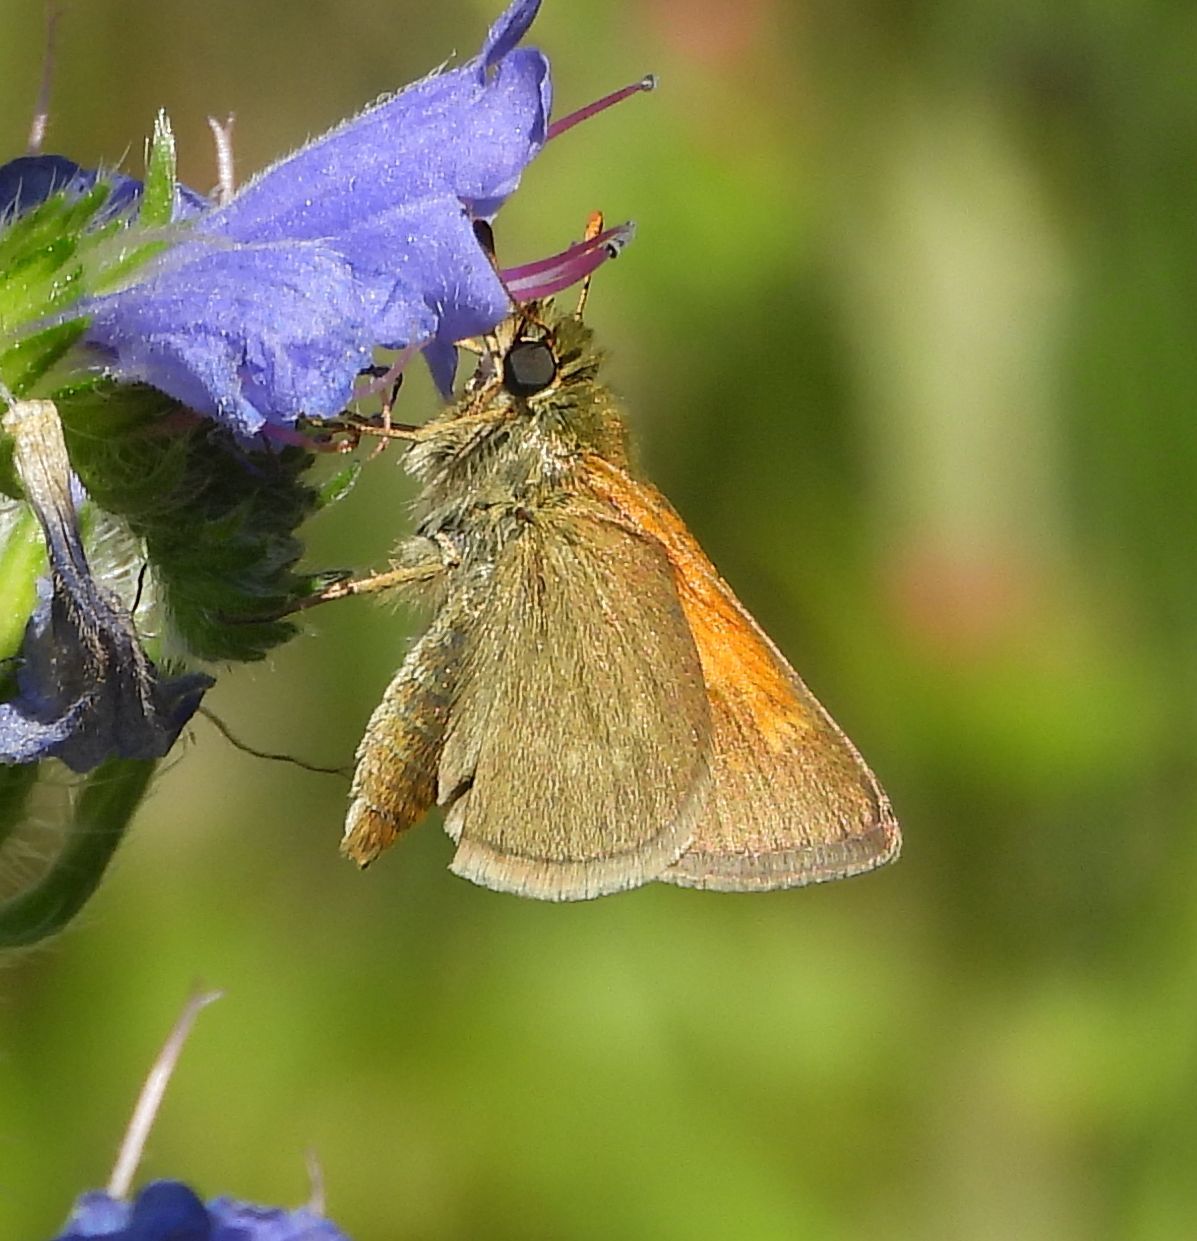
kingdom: Animalia
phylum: Arthropoda
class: Insecta
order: Lepidoptera
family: Hesperiidae
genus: Polites
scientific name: Polites themistocles
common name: Tawny-edged skipper
